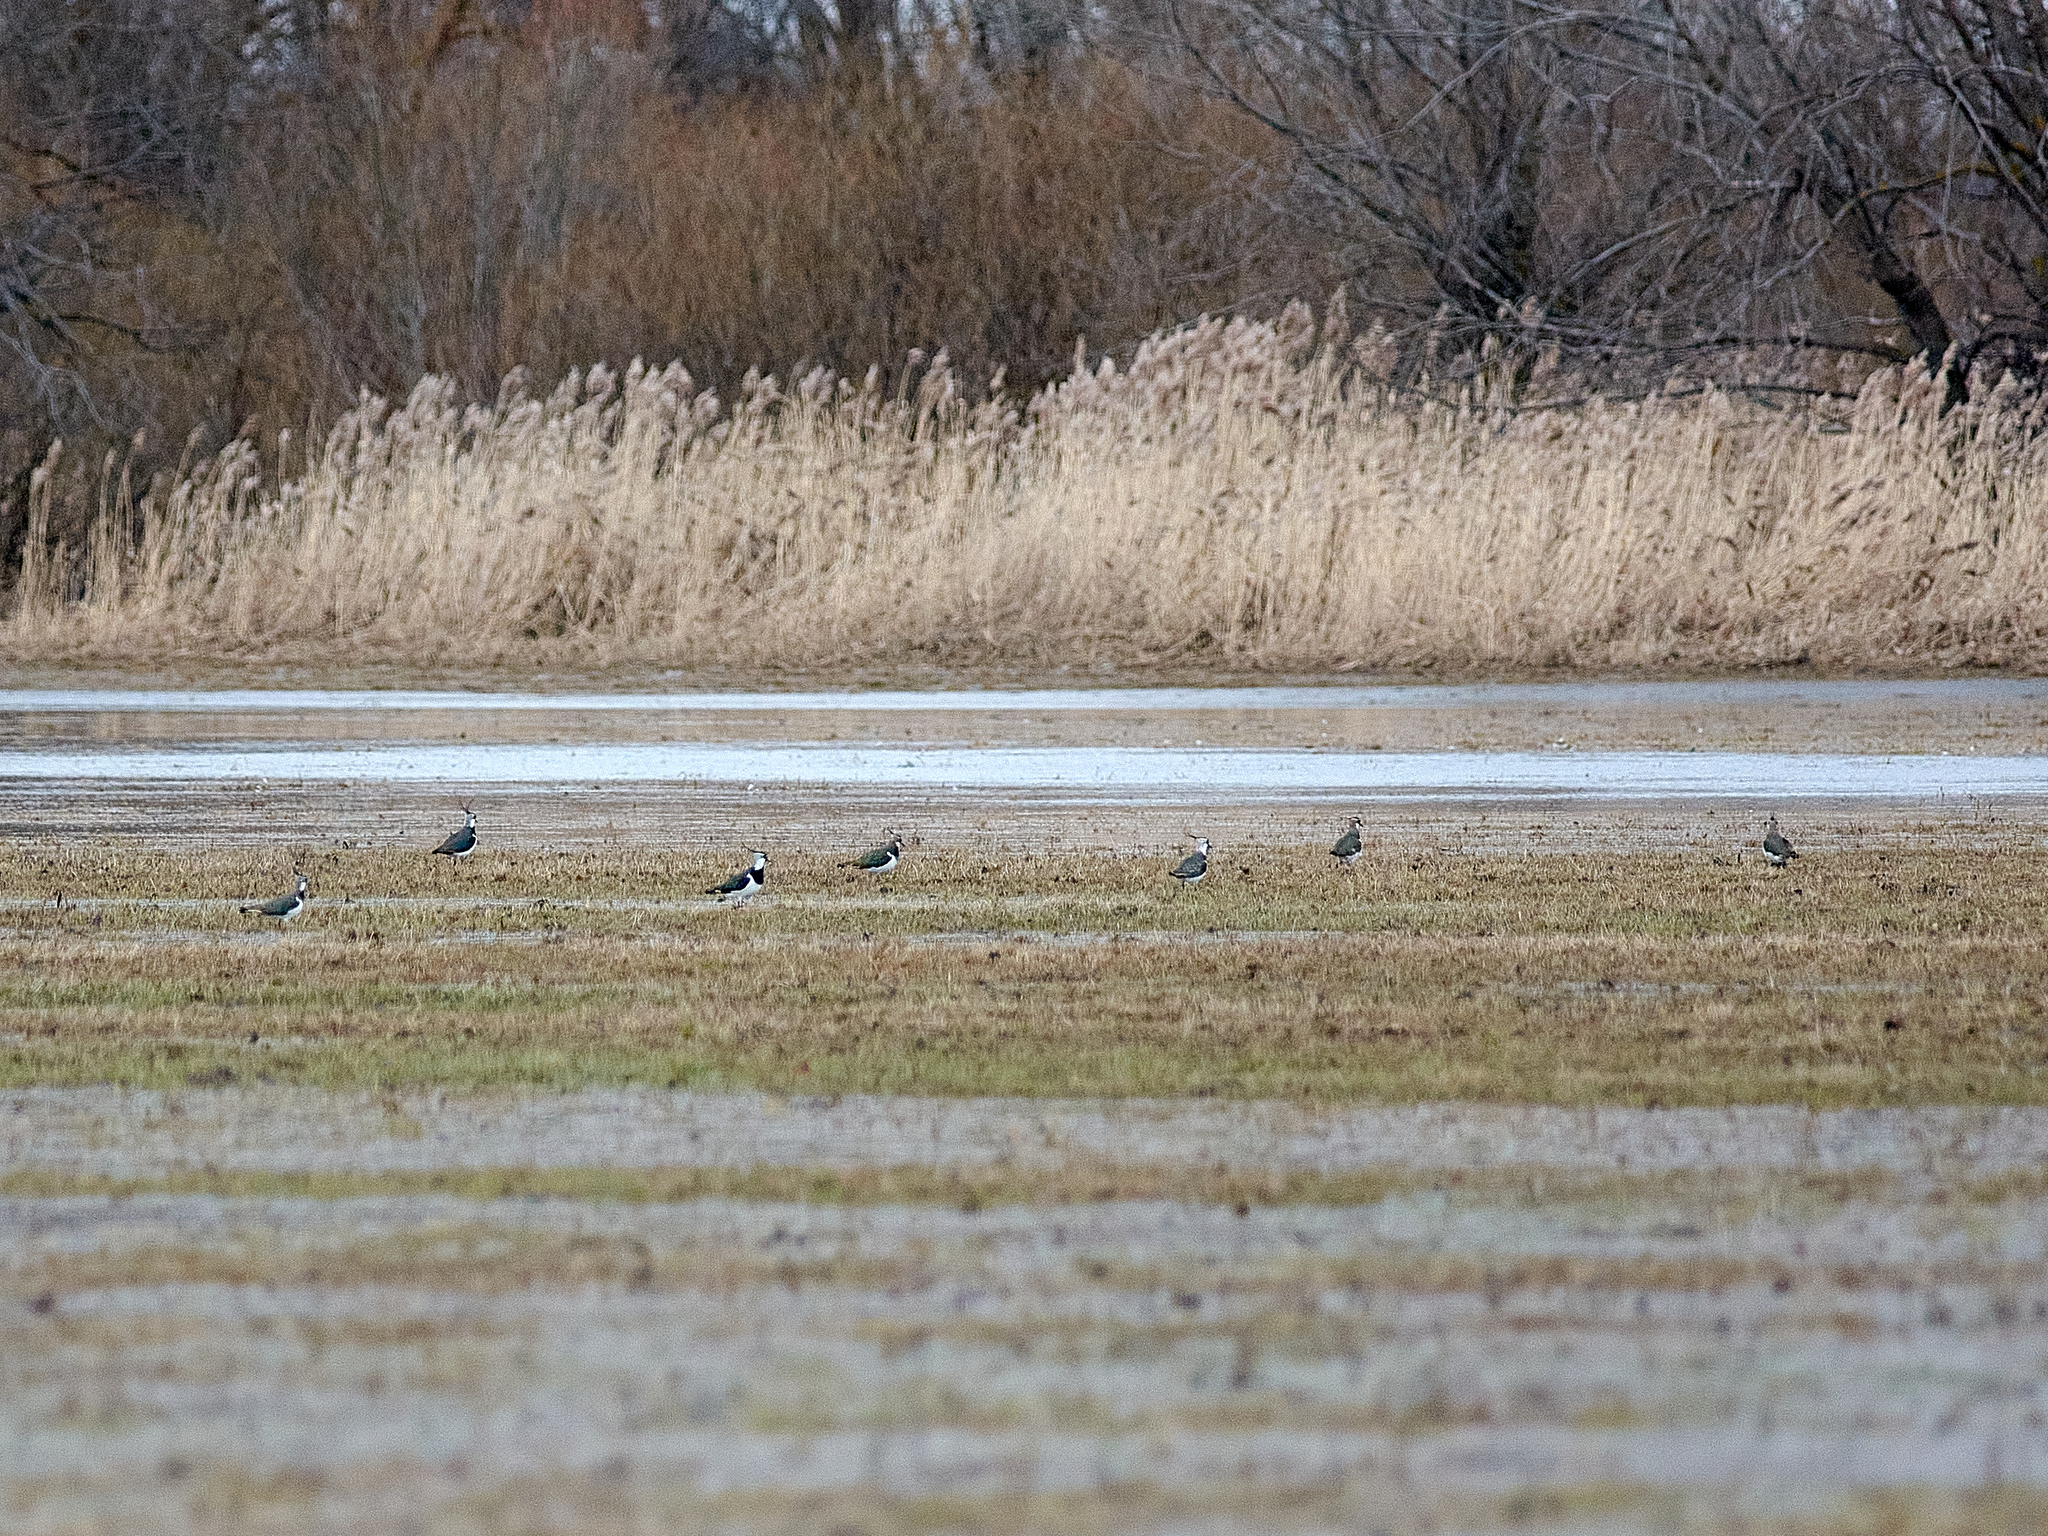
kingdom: Animalia
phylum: Chordata
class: Aves
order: Charadriiformes
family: Charadriidae
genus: Vanellus
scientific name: Vanellus vanellus
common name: Northern lapwing
